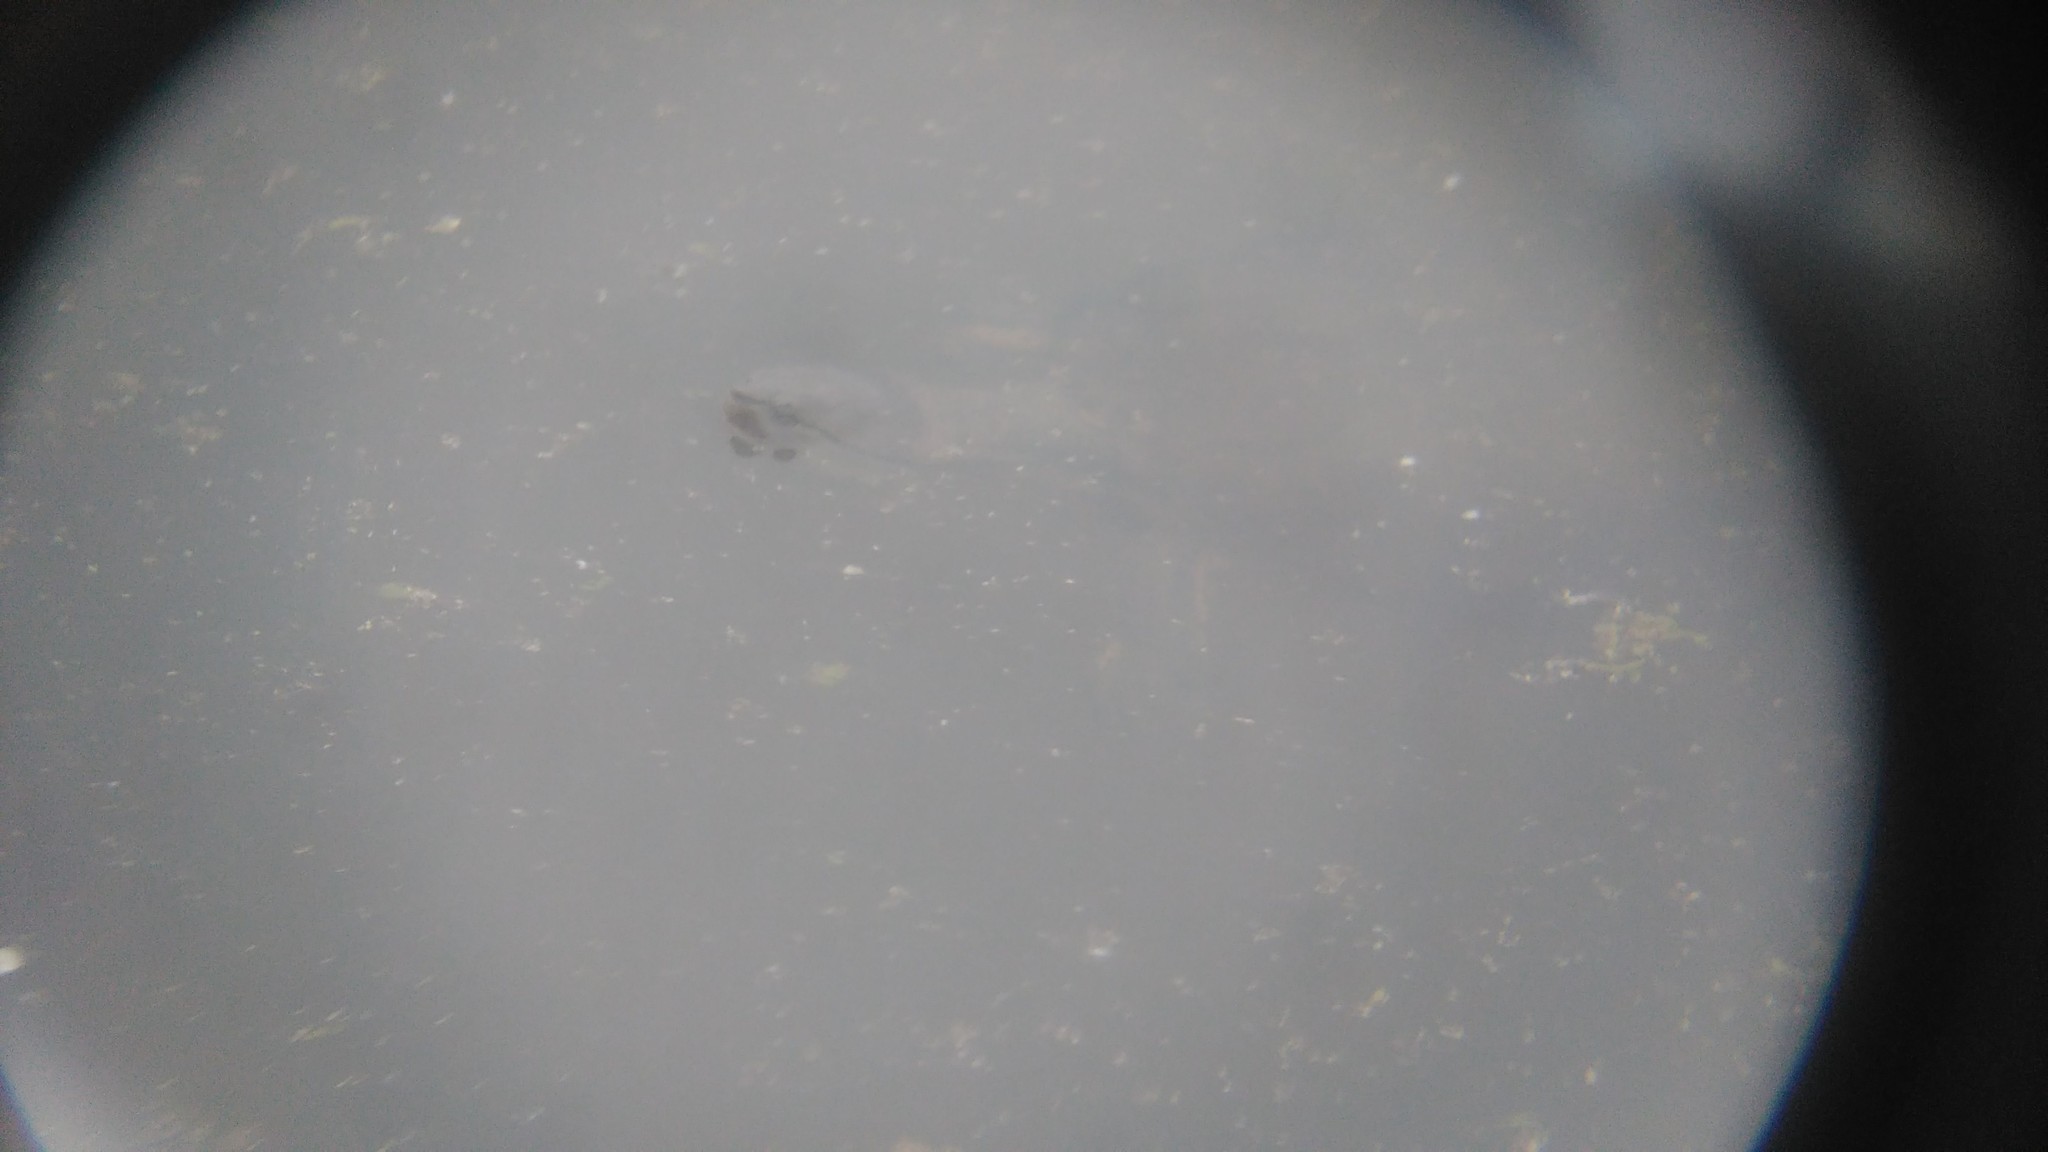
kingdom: Animalia
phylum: Chordata
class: Testudines
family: Chelidae
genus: Phrynops
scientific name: Phrynops hilarii
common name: Side-necked turtle of saint hillaire
